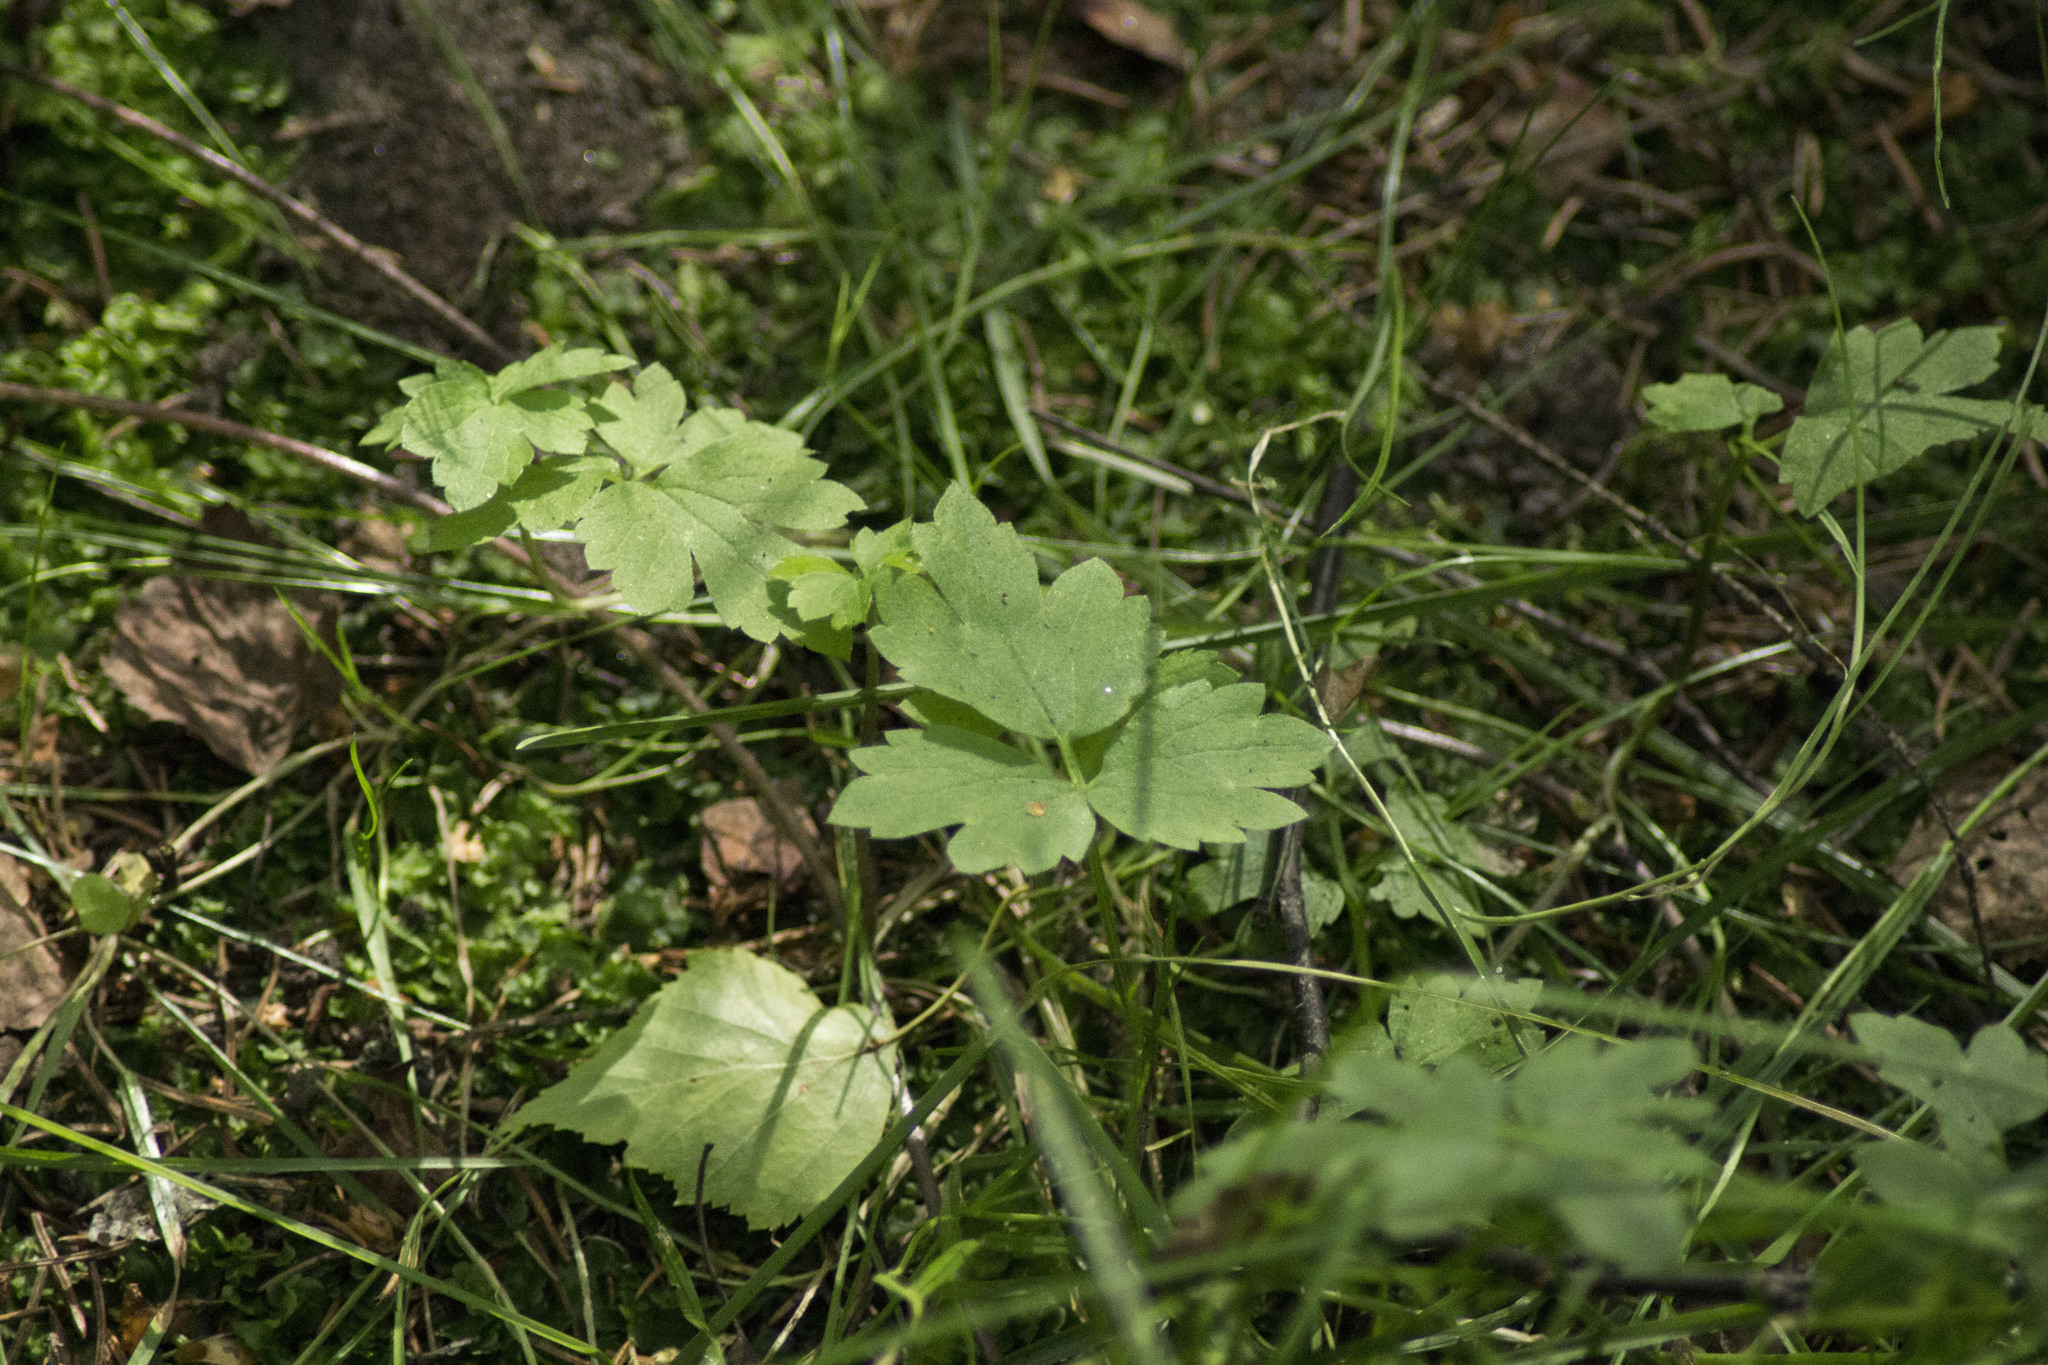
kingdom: Plantae
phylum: Tracheophyta
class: Magnoliopsida
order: Ranunculales
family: Ranunculaceae
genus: Ranunculus
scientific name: Ranunculus repens
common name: Creeping buttercup
